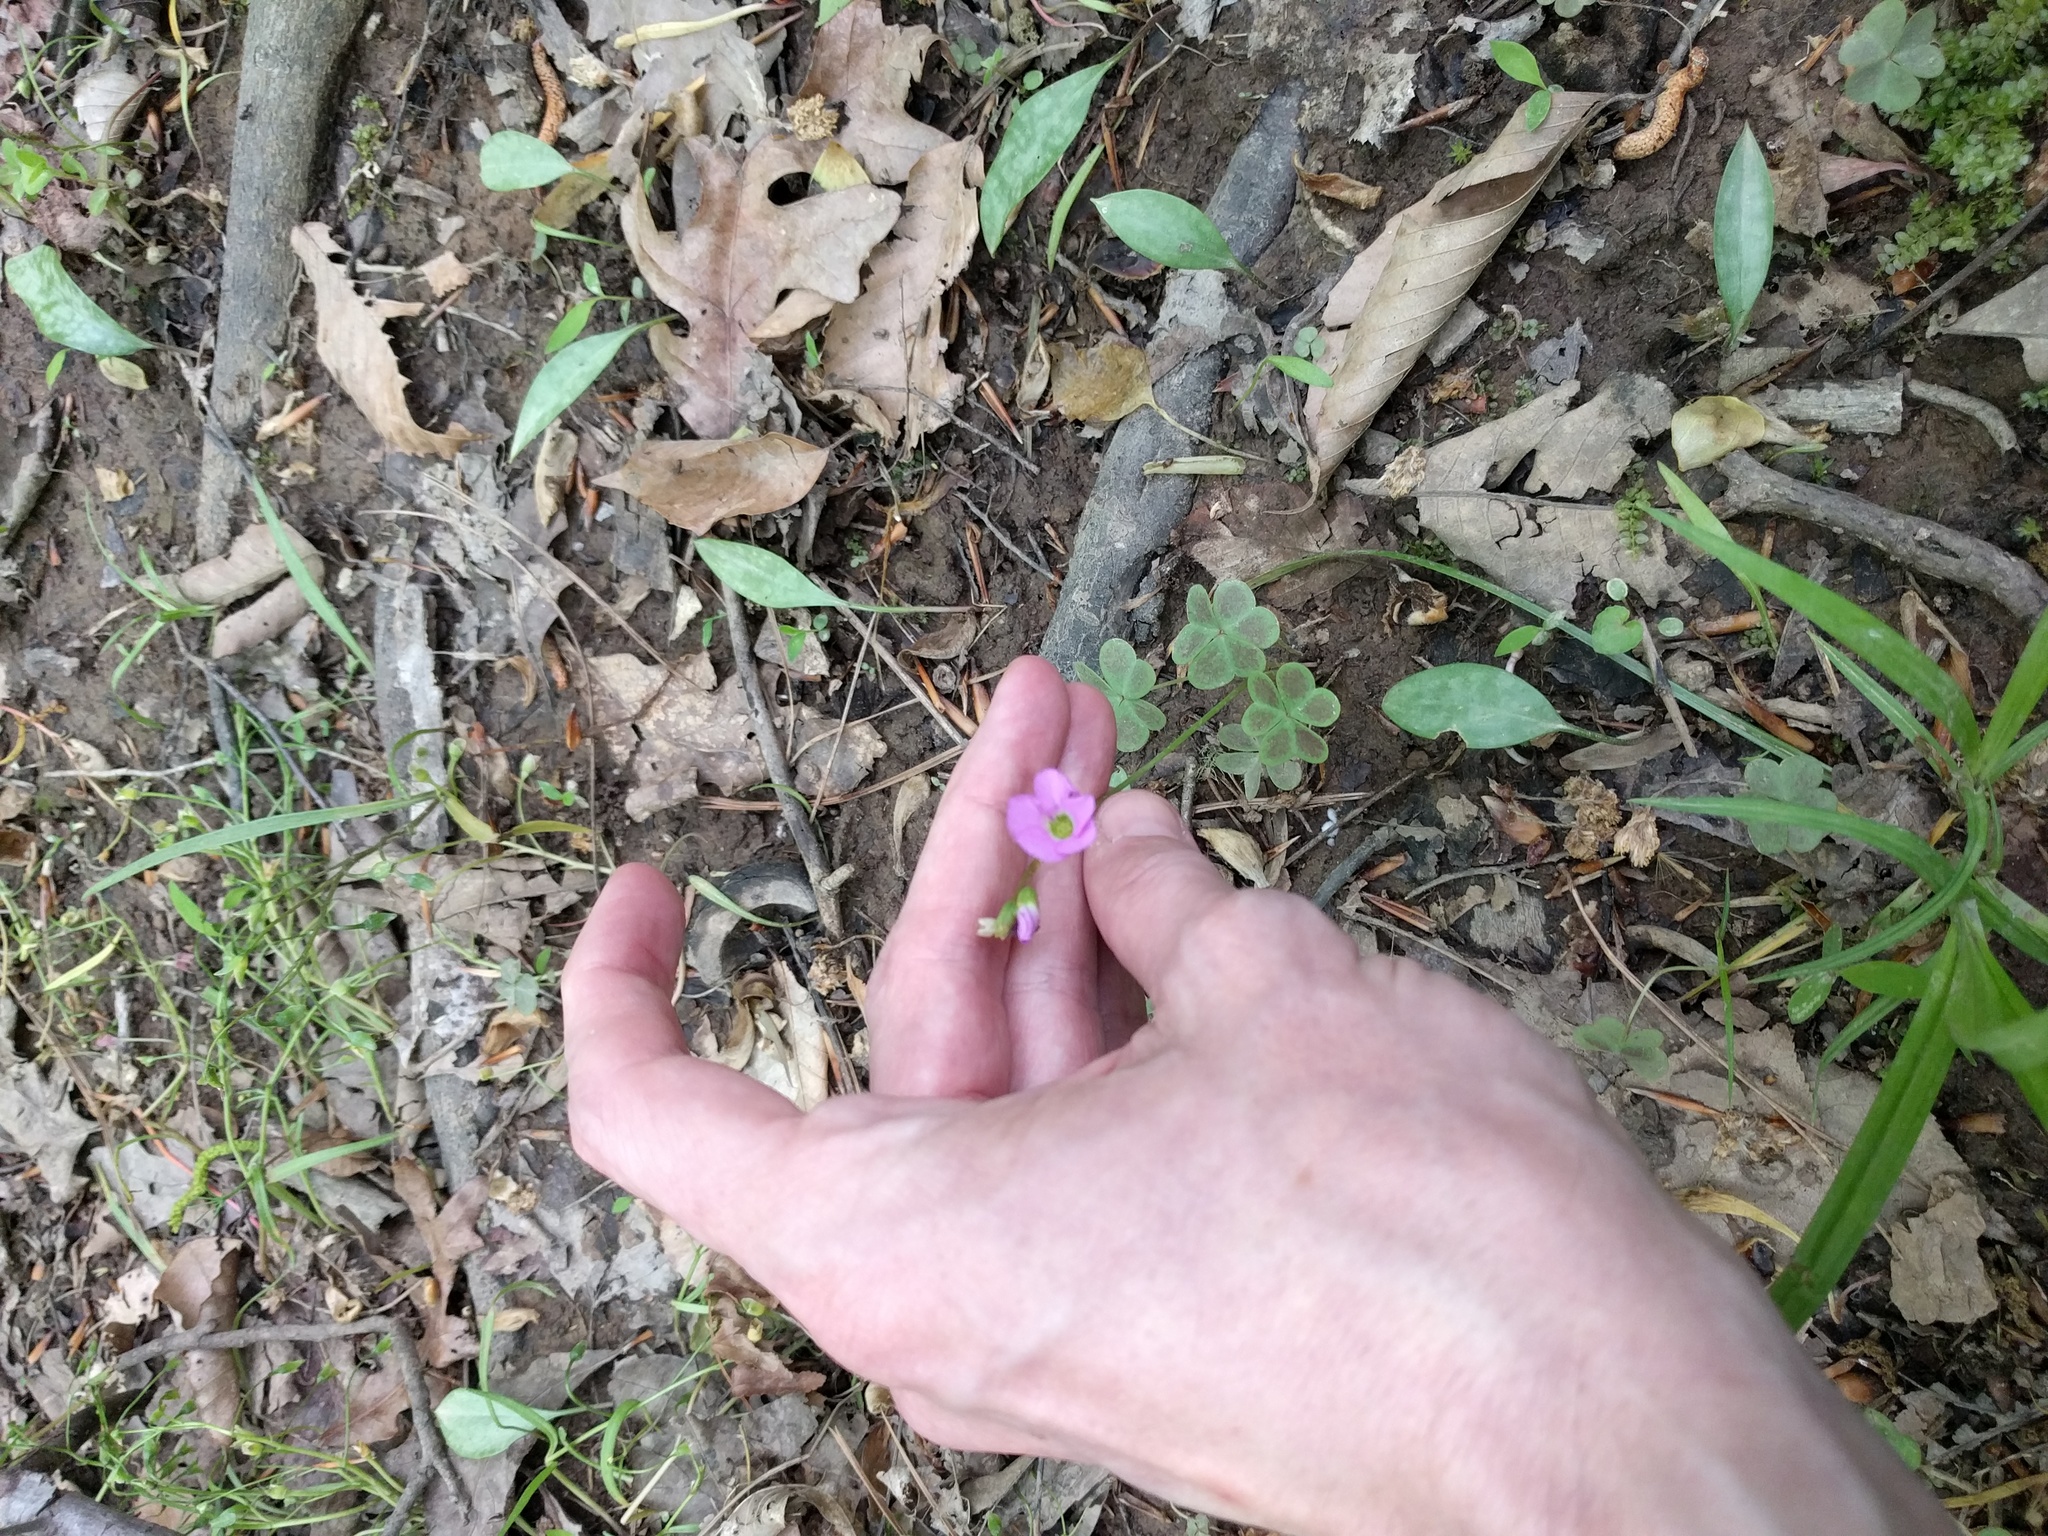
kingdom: Plantae
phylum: Tracheophyta
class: Magnoliopsida
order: Oxalidales
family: Oxalidaceae
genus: Oxalis
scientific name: Oxalis violacea
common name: Violet wood-sorrel
